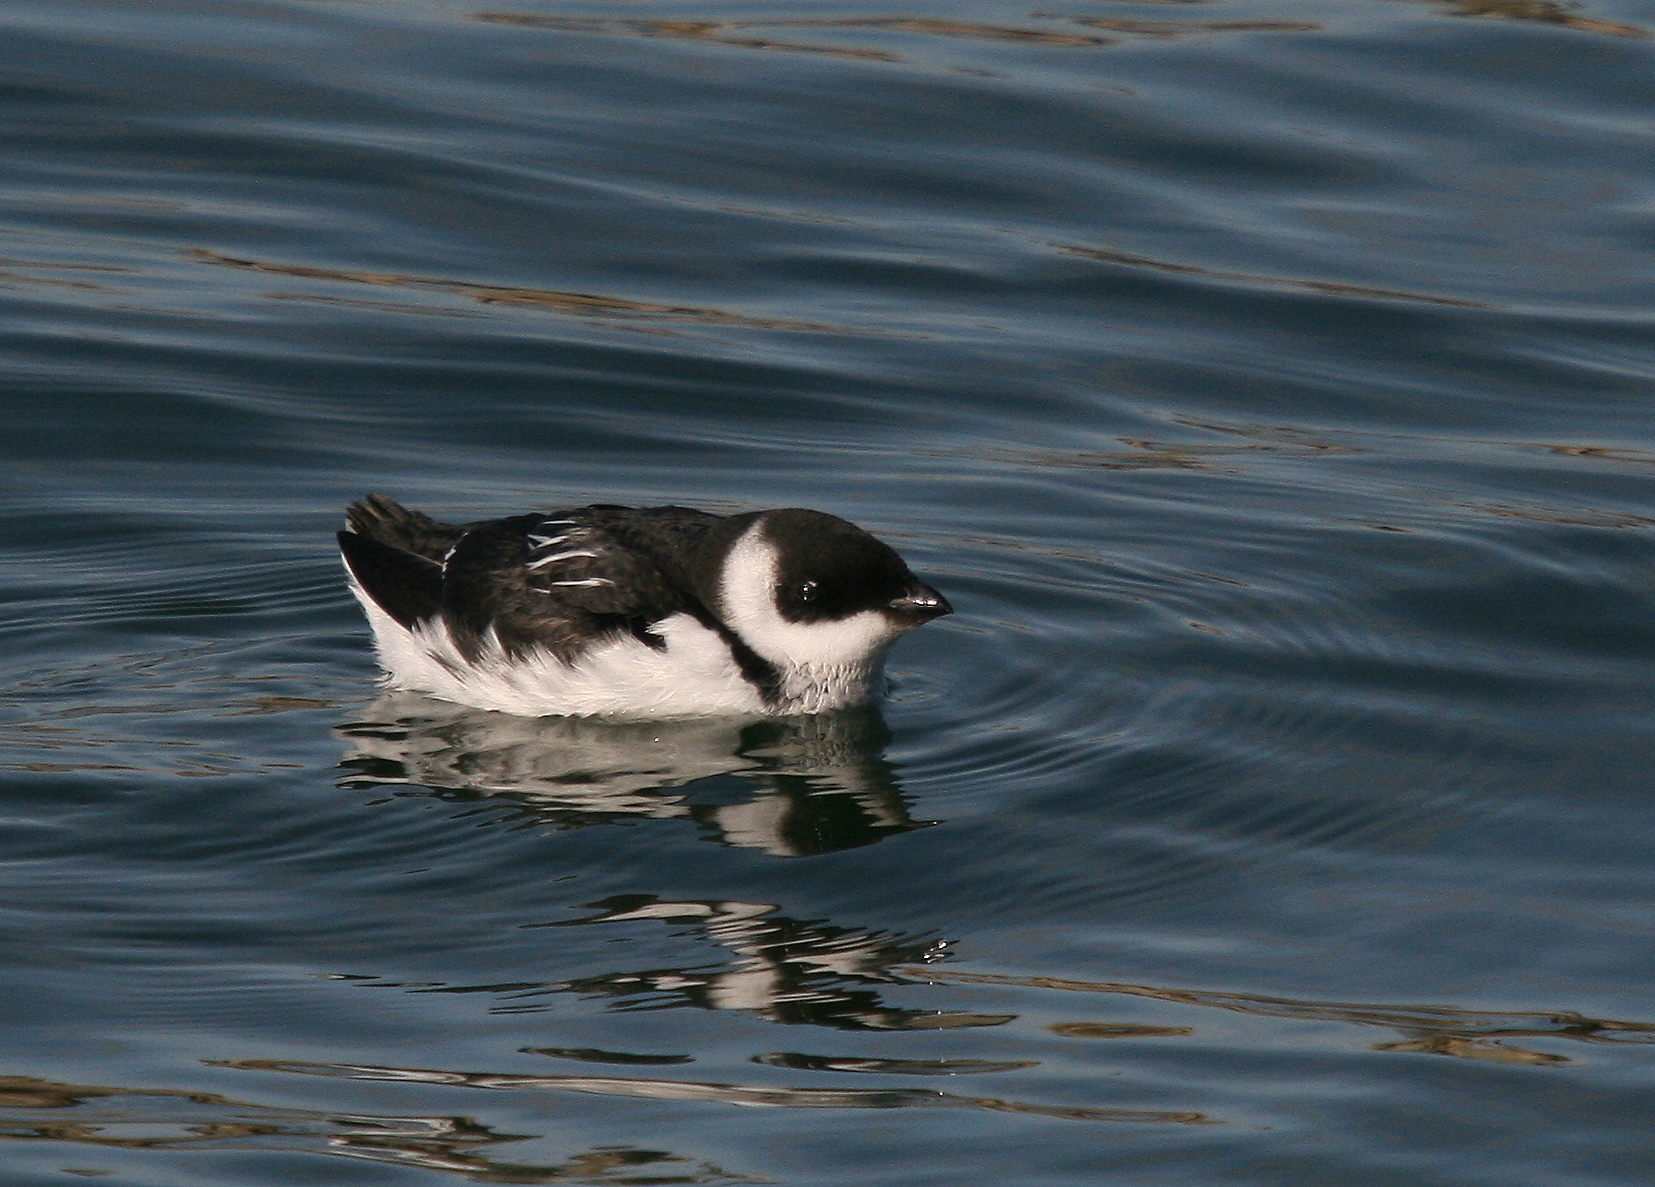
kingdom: Animalia
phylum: Chordata
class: Aves
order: Charadriiformes
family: Alcidae
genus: Alle
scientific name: Alle alle
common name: Little auk
